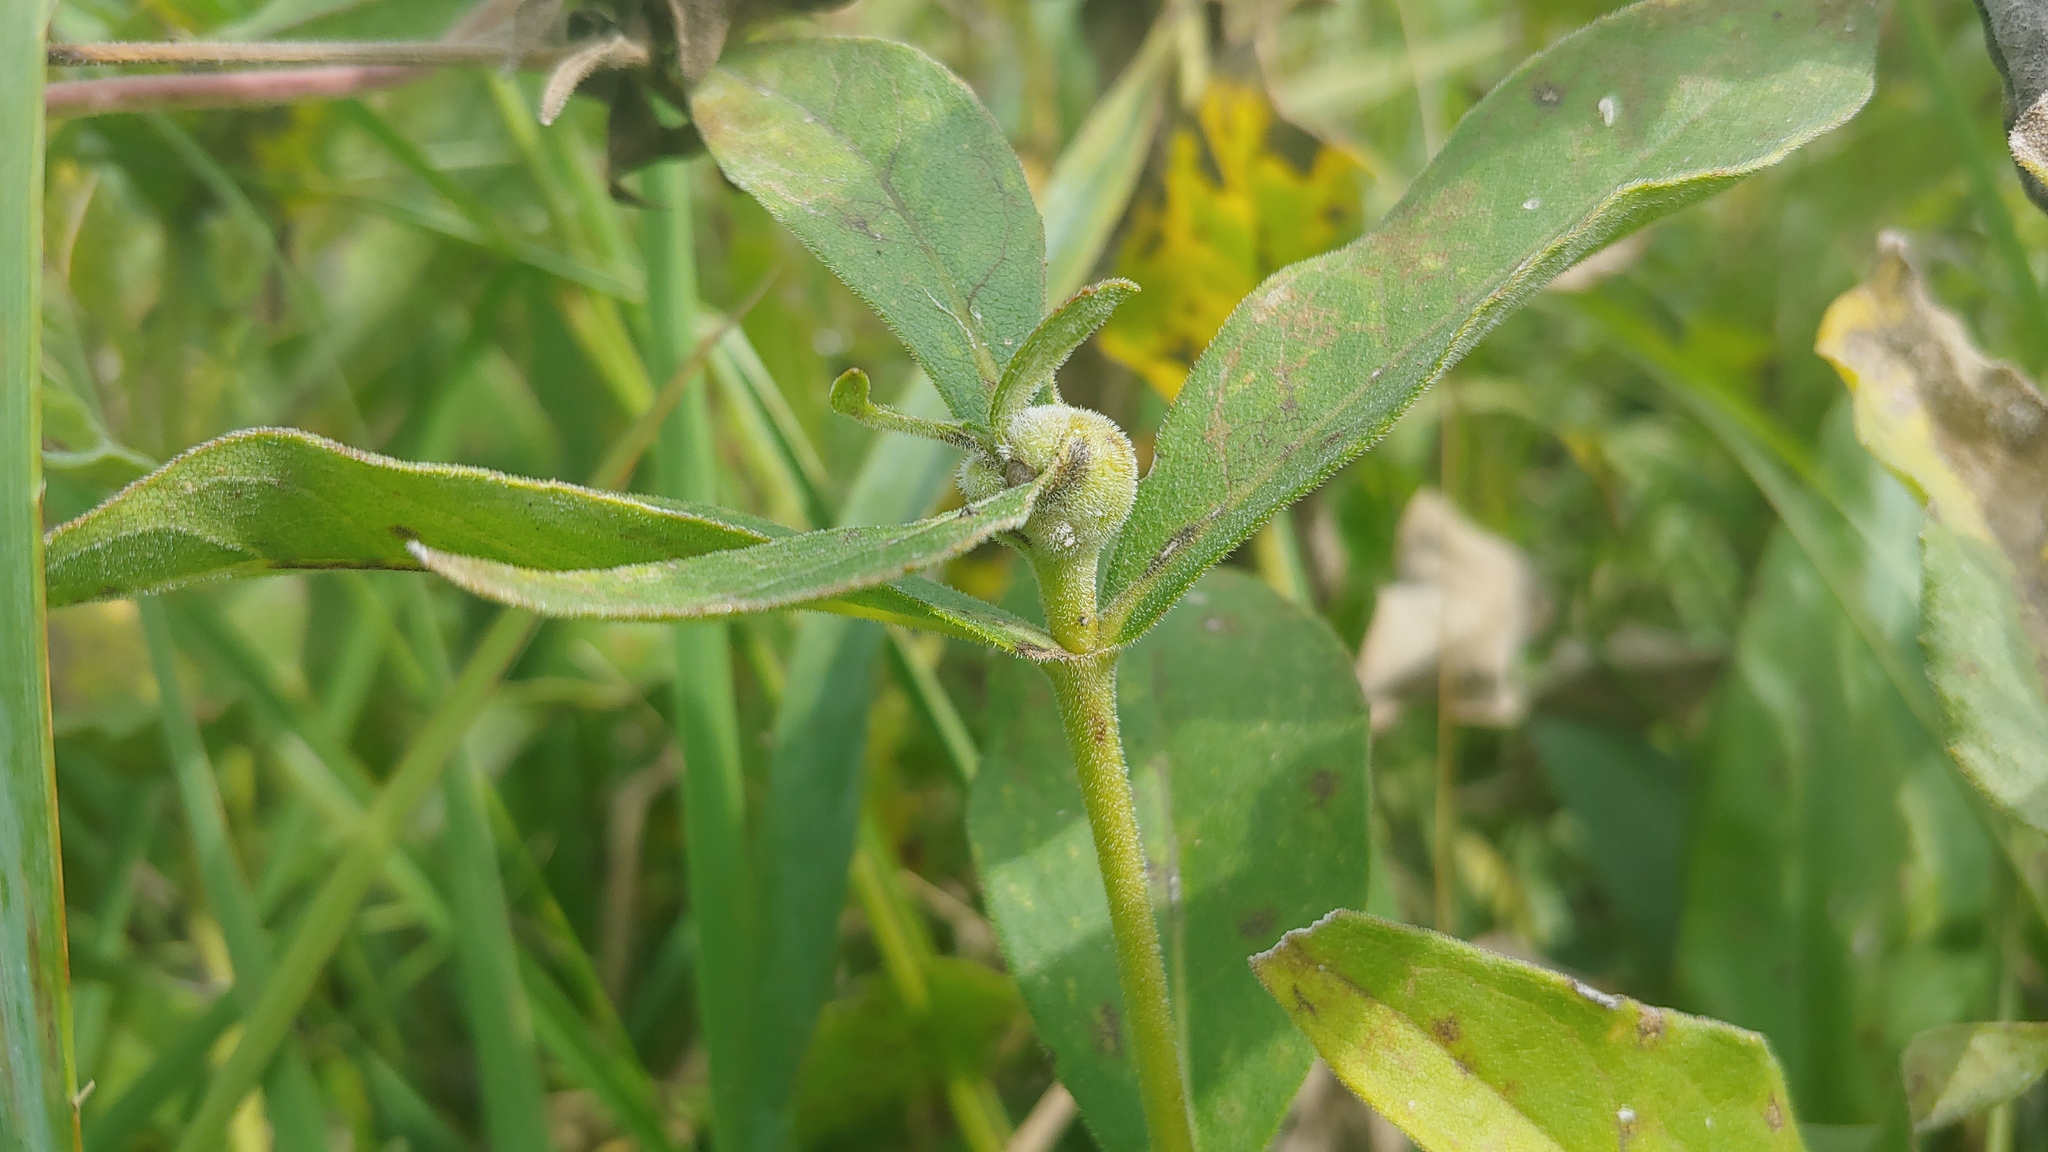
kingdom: Animalia
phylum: Arthropoda
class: Insecta
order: Hymenoptera
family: Cynipidae
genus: Antistrophus
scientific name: Antistrophus silphii
